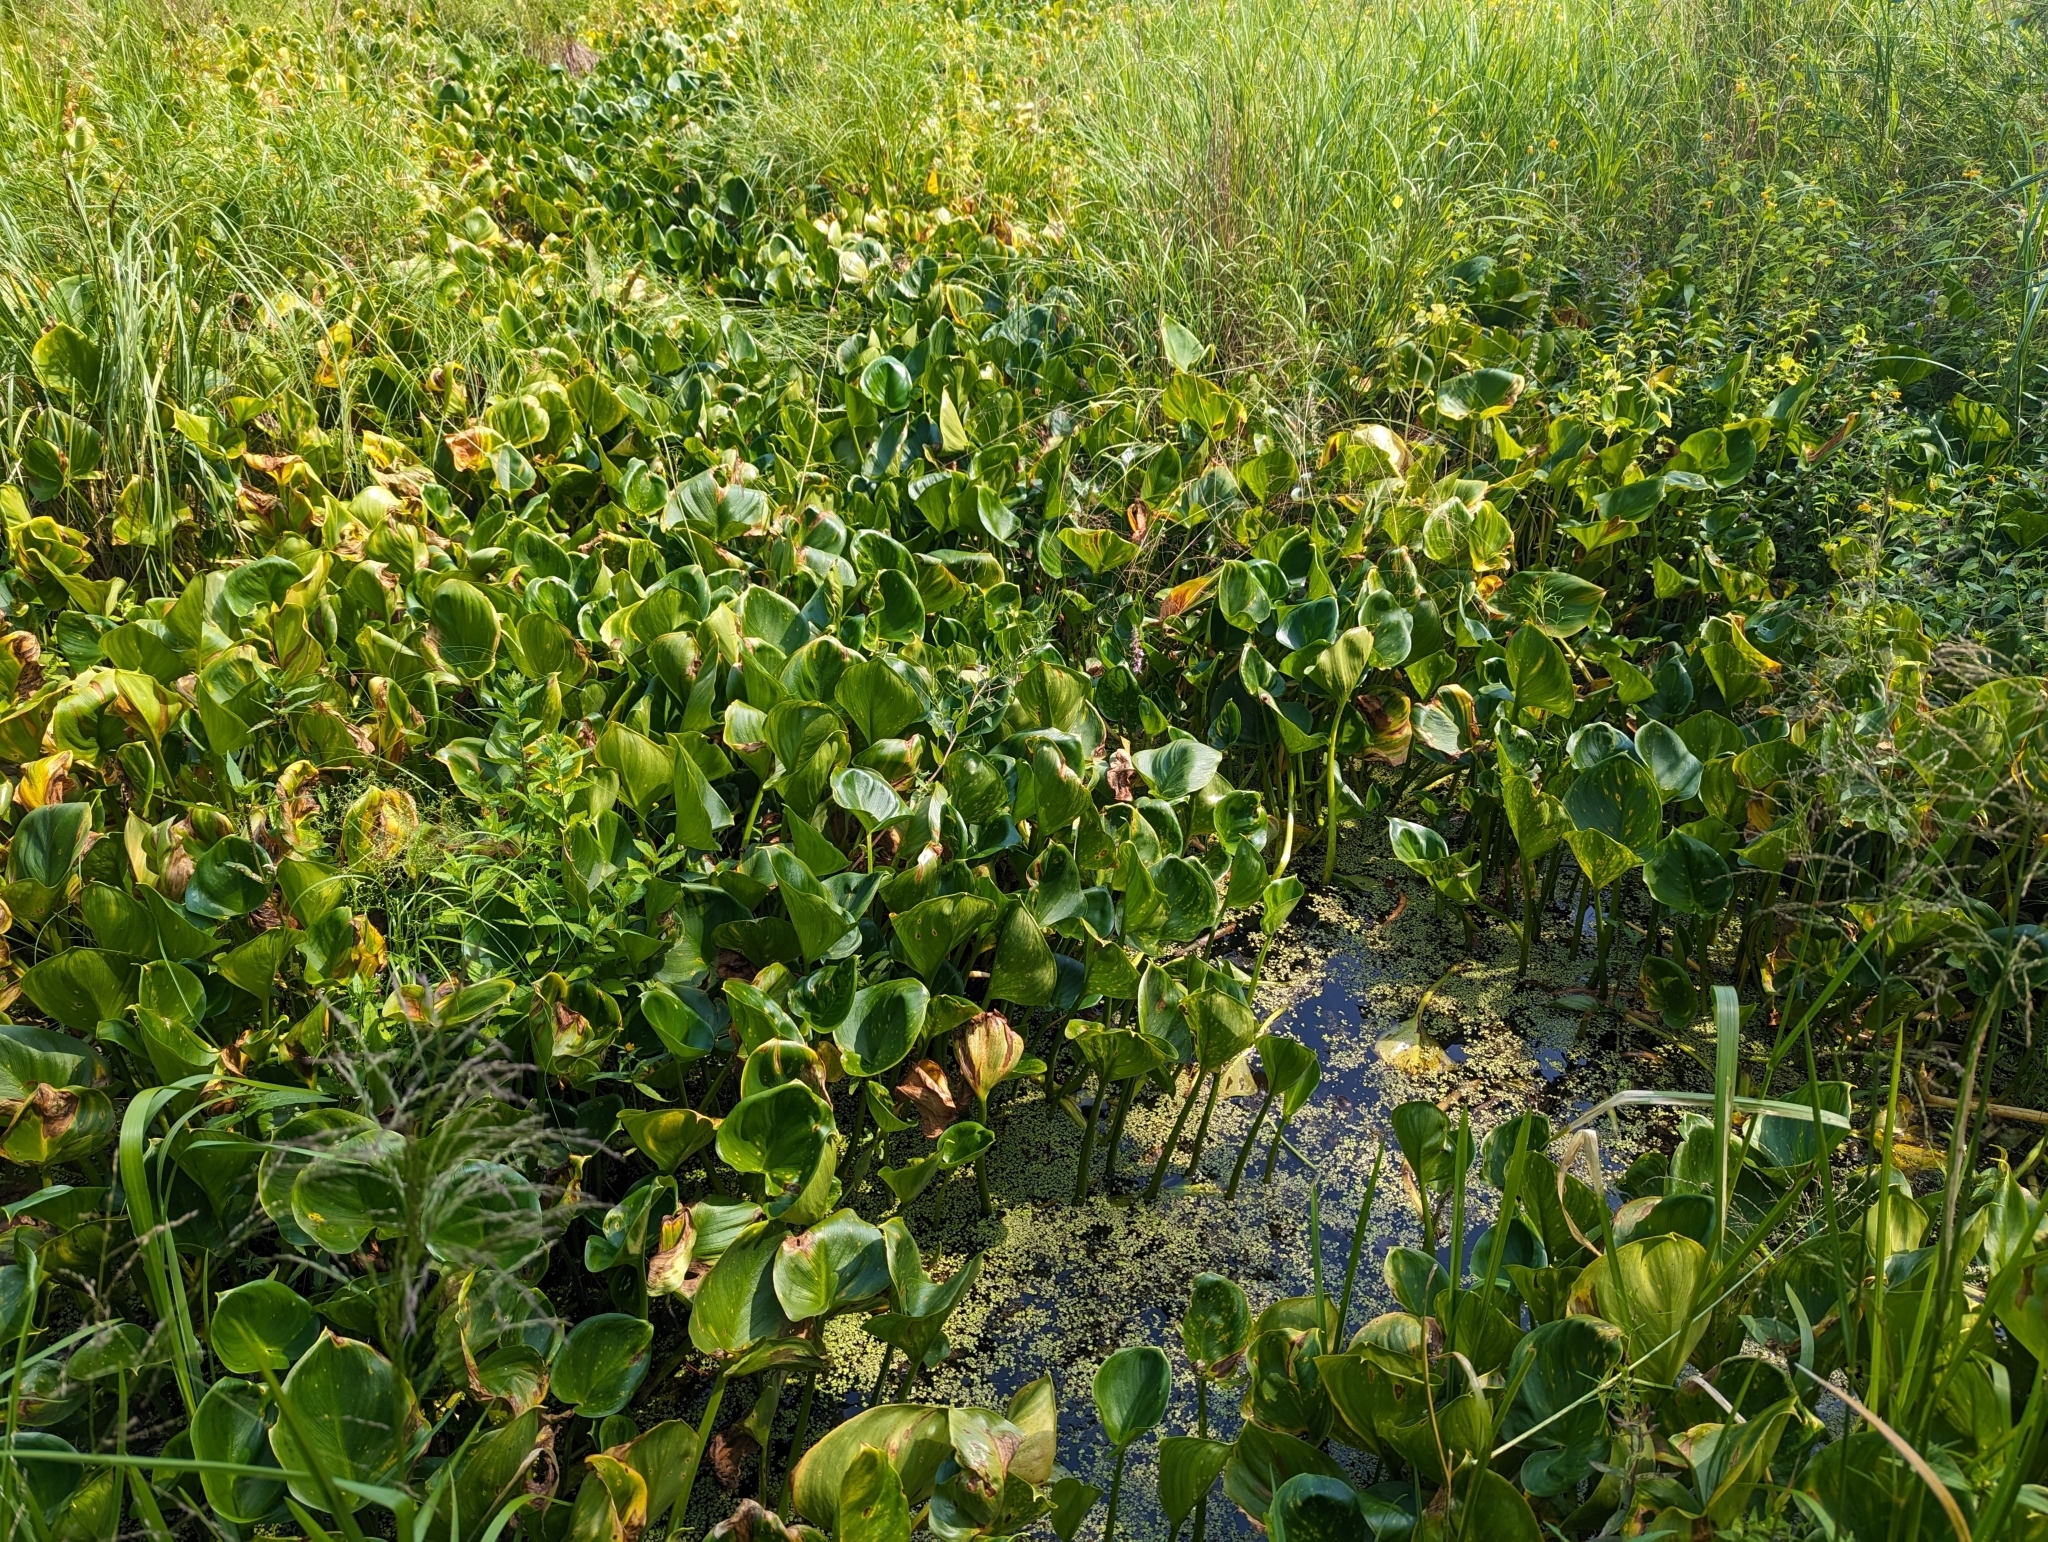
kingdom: Plantae
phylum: Tracheophyta
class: Liliopsida
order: Alismatales
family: Araceae
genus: Calla
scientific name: Calla palustris
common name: Bog arum
